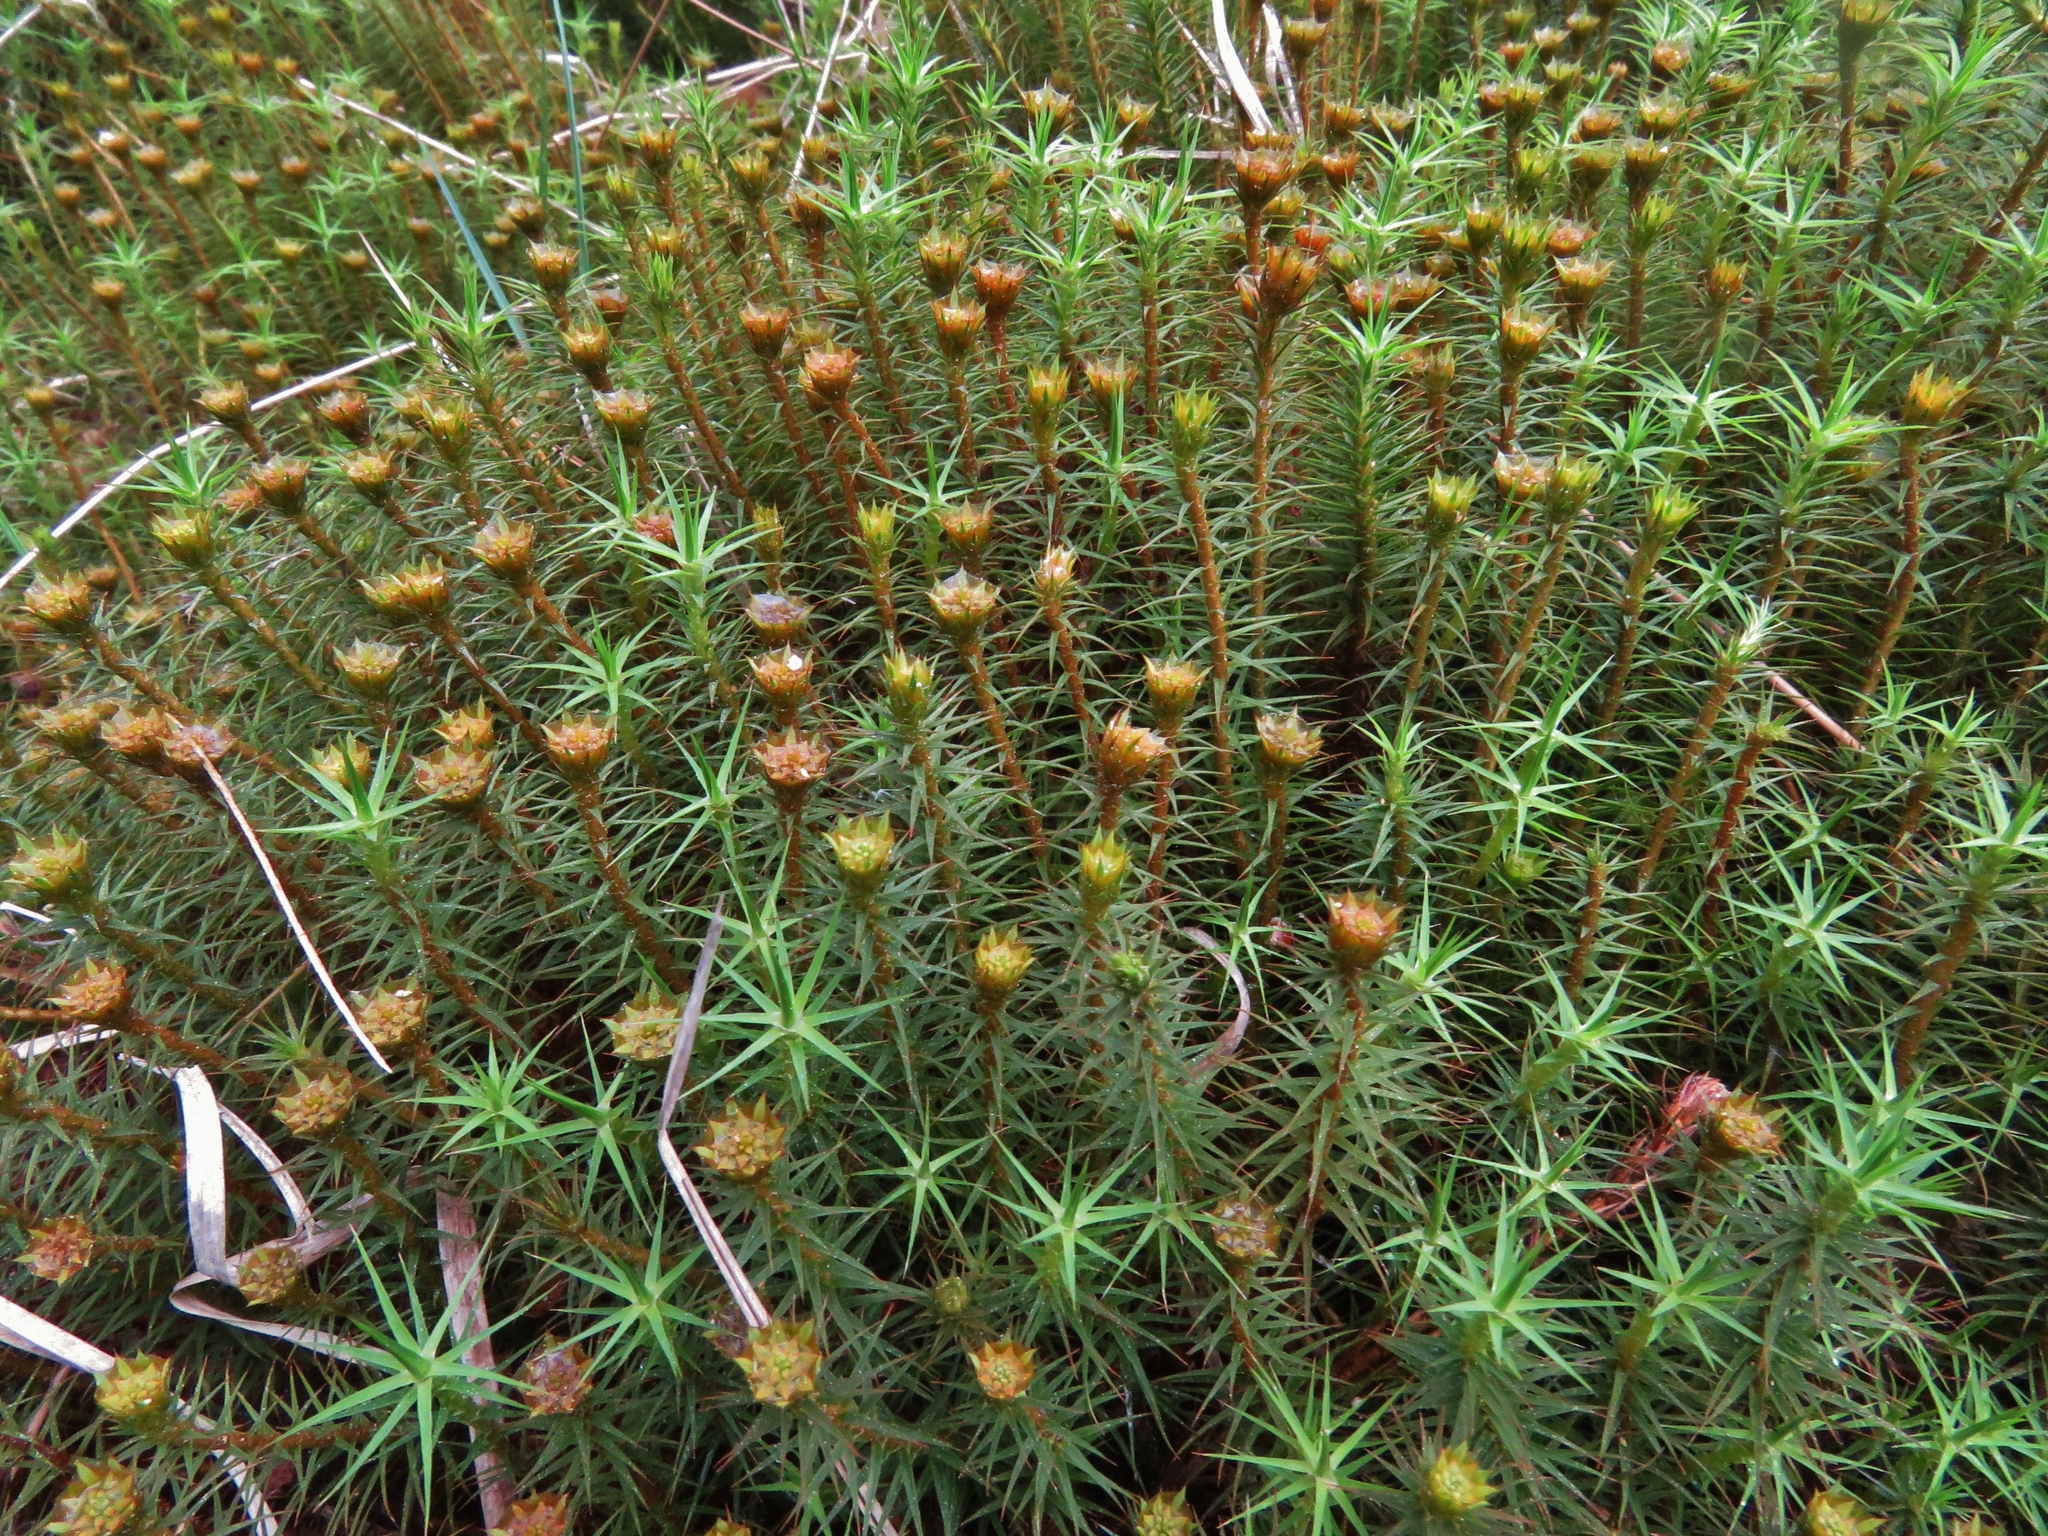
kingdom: Plantae
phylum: Bryophyta
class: Polytrichopsida
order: Polytrichales
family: Polytrichaceae
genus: Polytrichum
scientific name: Polytrichum commune
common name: Common haircap
